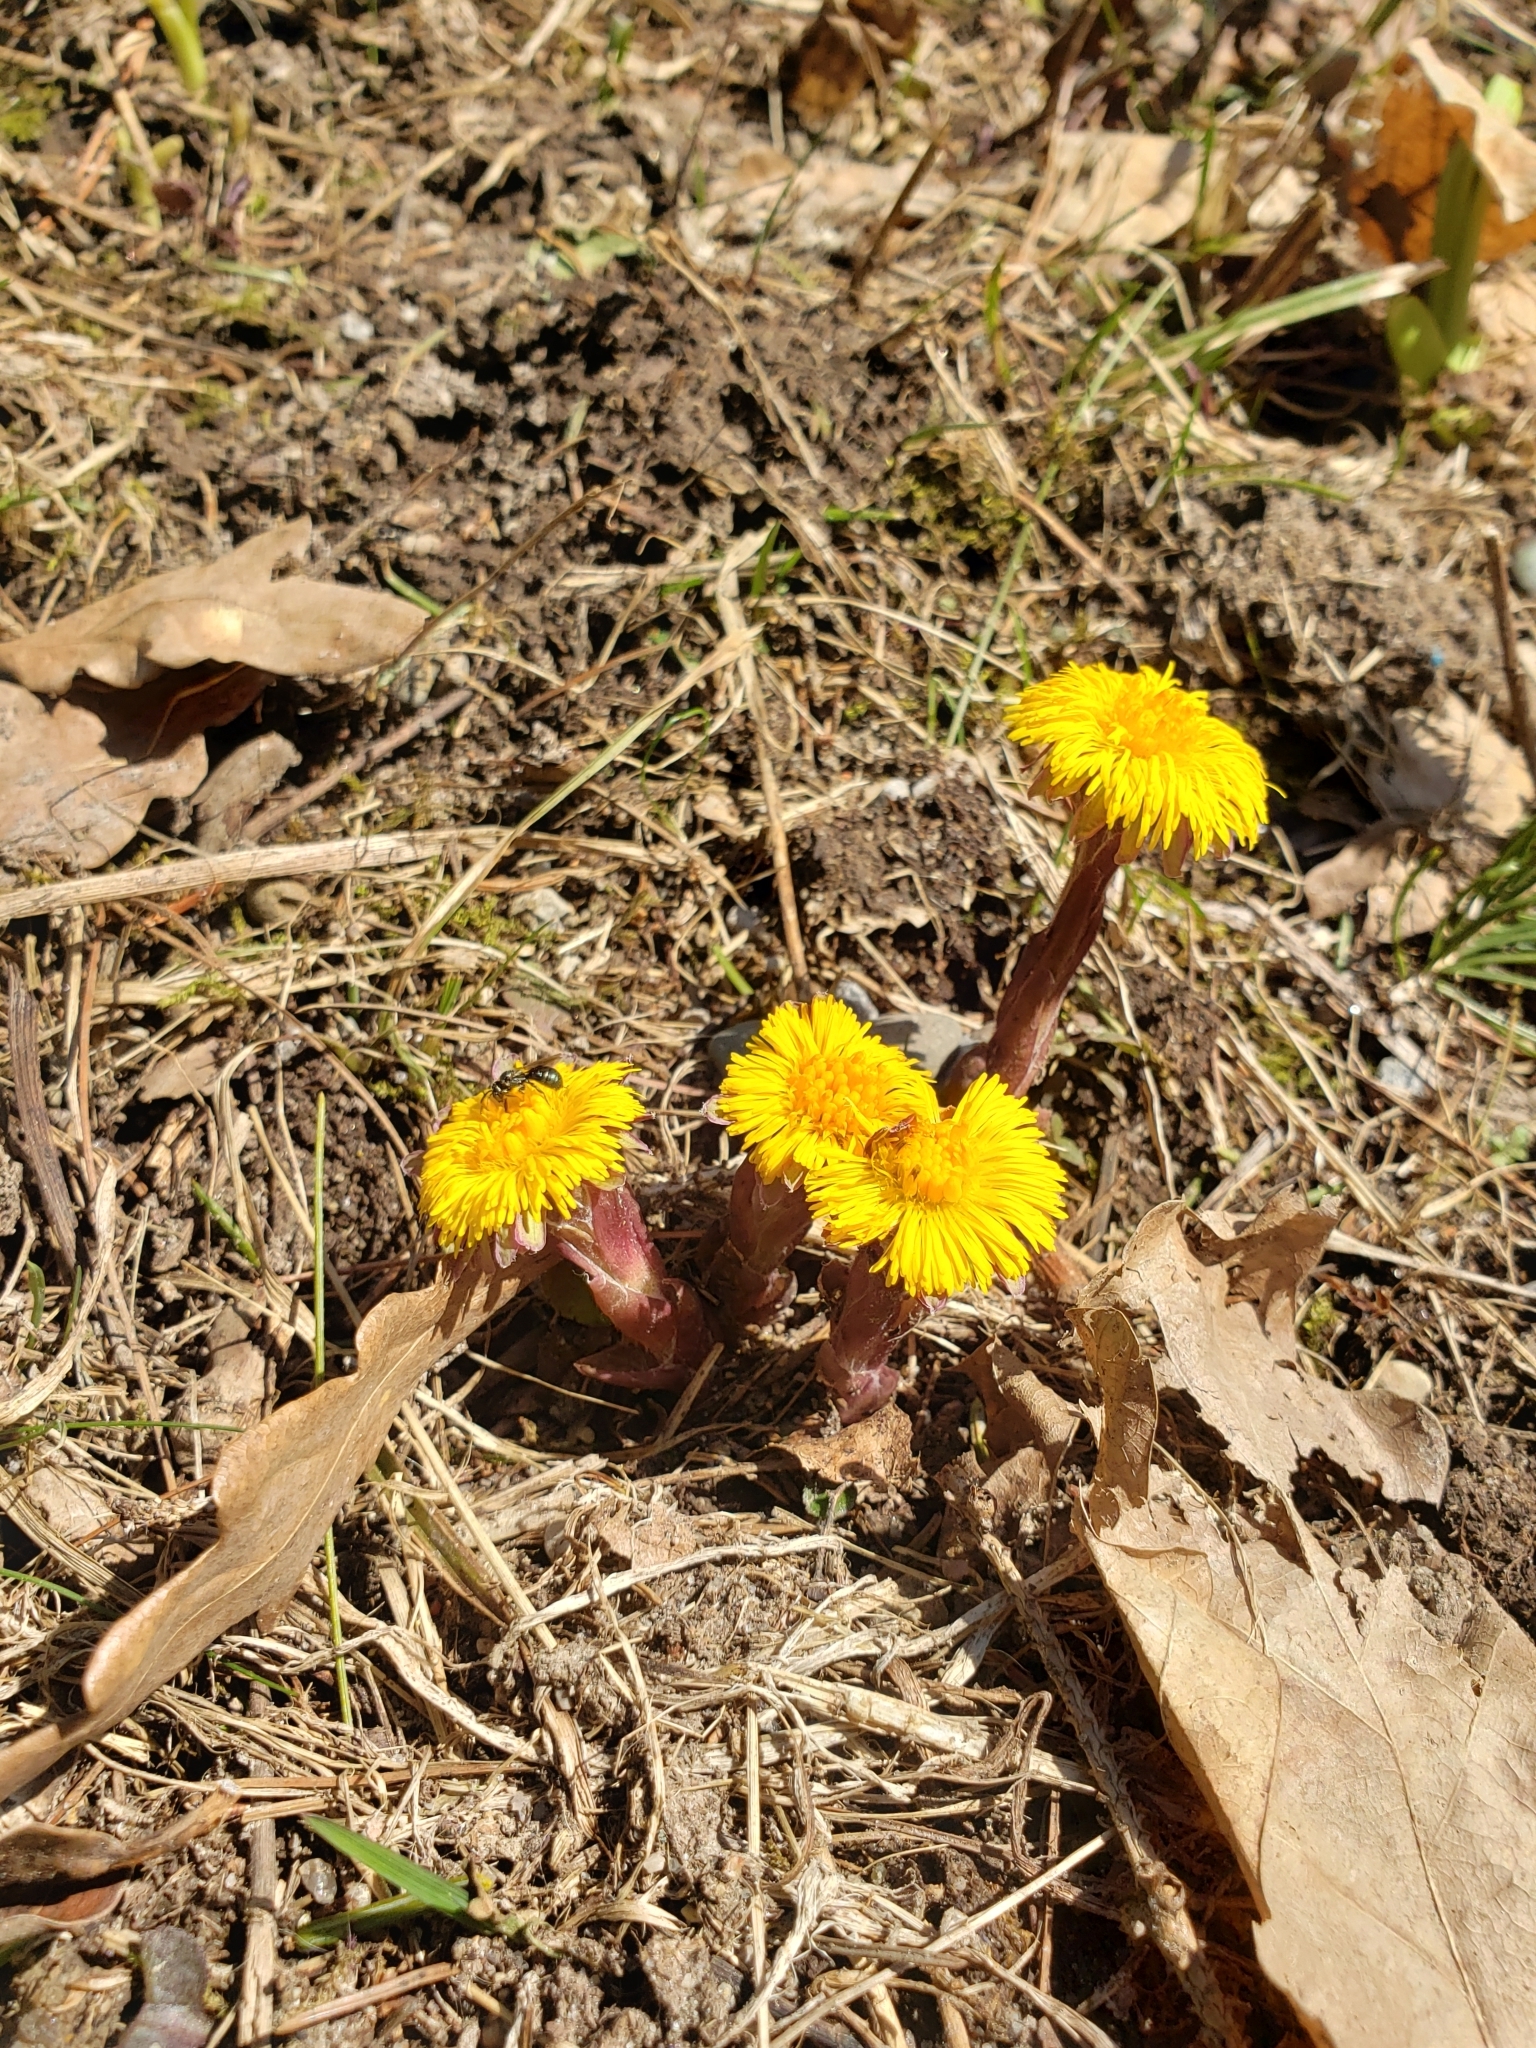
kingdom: Plantae
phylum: Tracheophyta
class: Magnoliopsida
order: Asterales
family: Asteraceae
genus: Tussilago
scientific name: Tussilago farfara
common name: Coltsfoot
